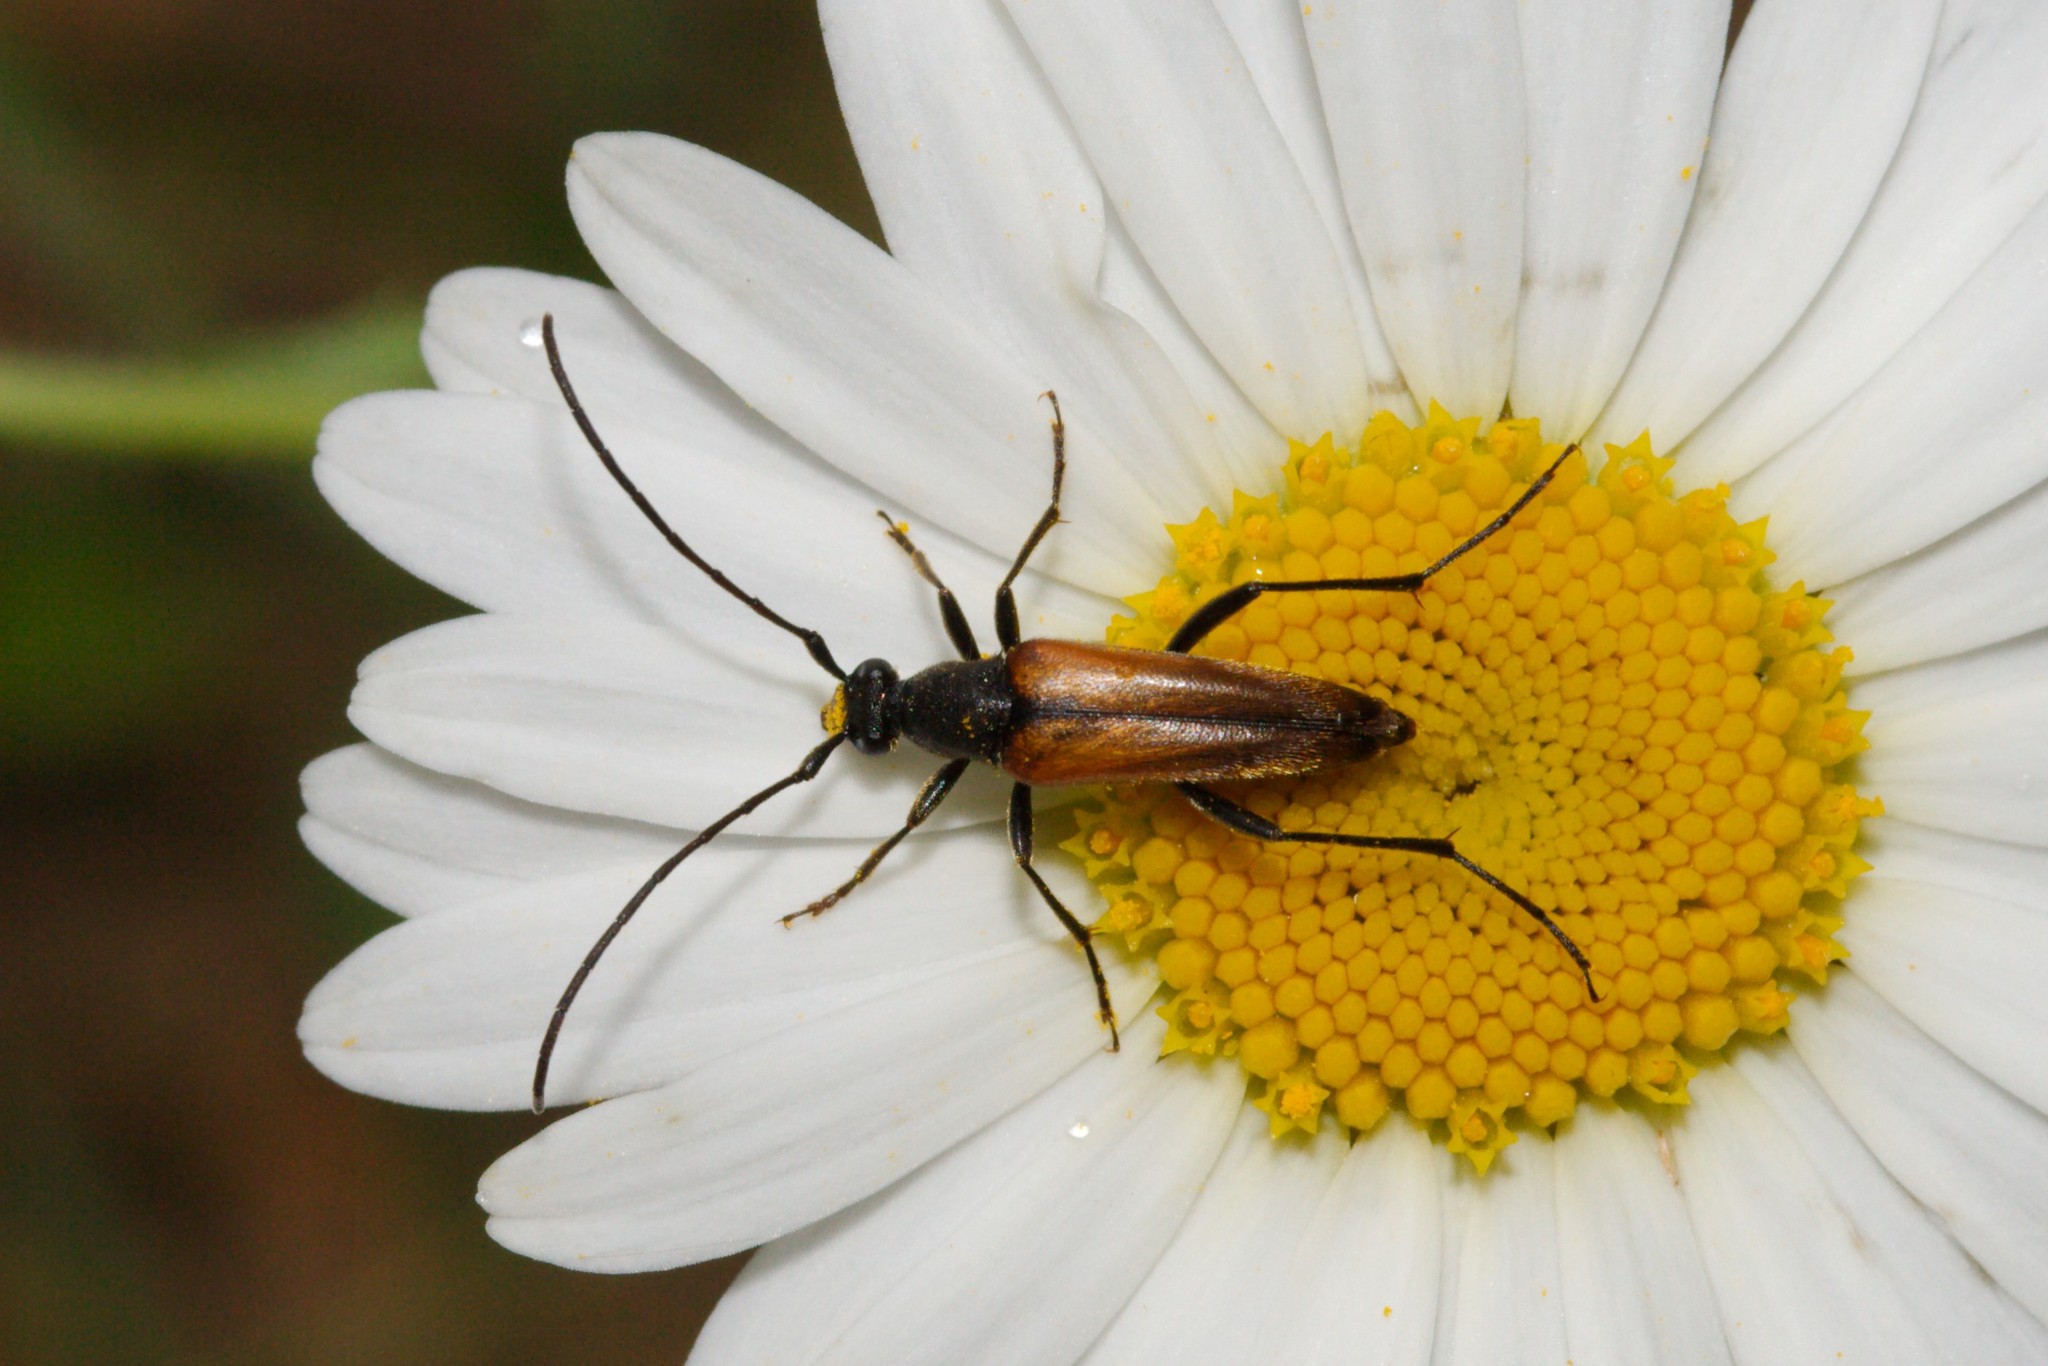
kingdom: Animalia
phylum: Arthropoda
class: Insecta
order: Coleoptera
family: Cerambycidae
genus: Stenurella
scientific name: Stenurella melanura
